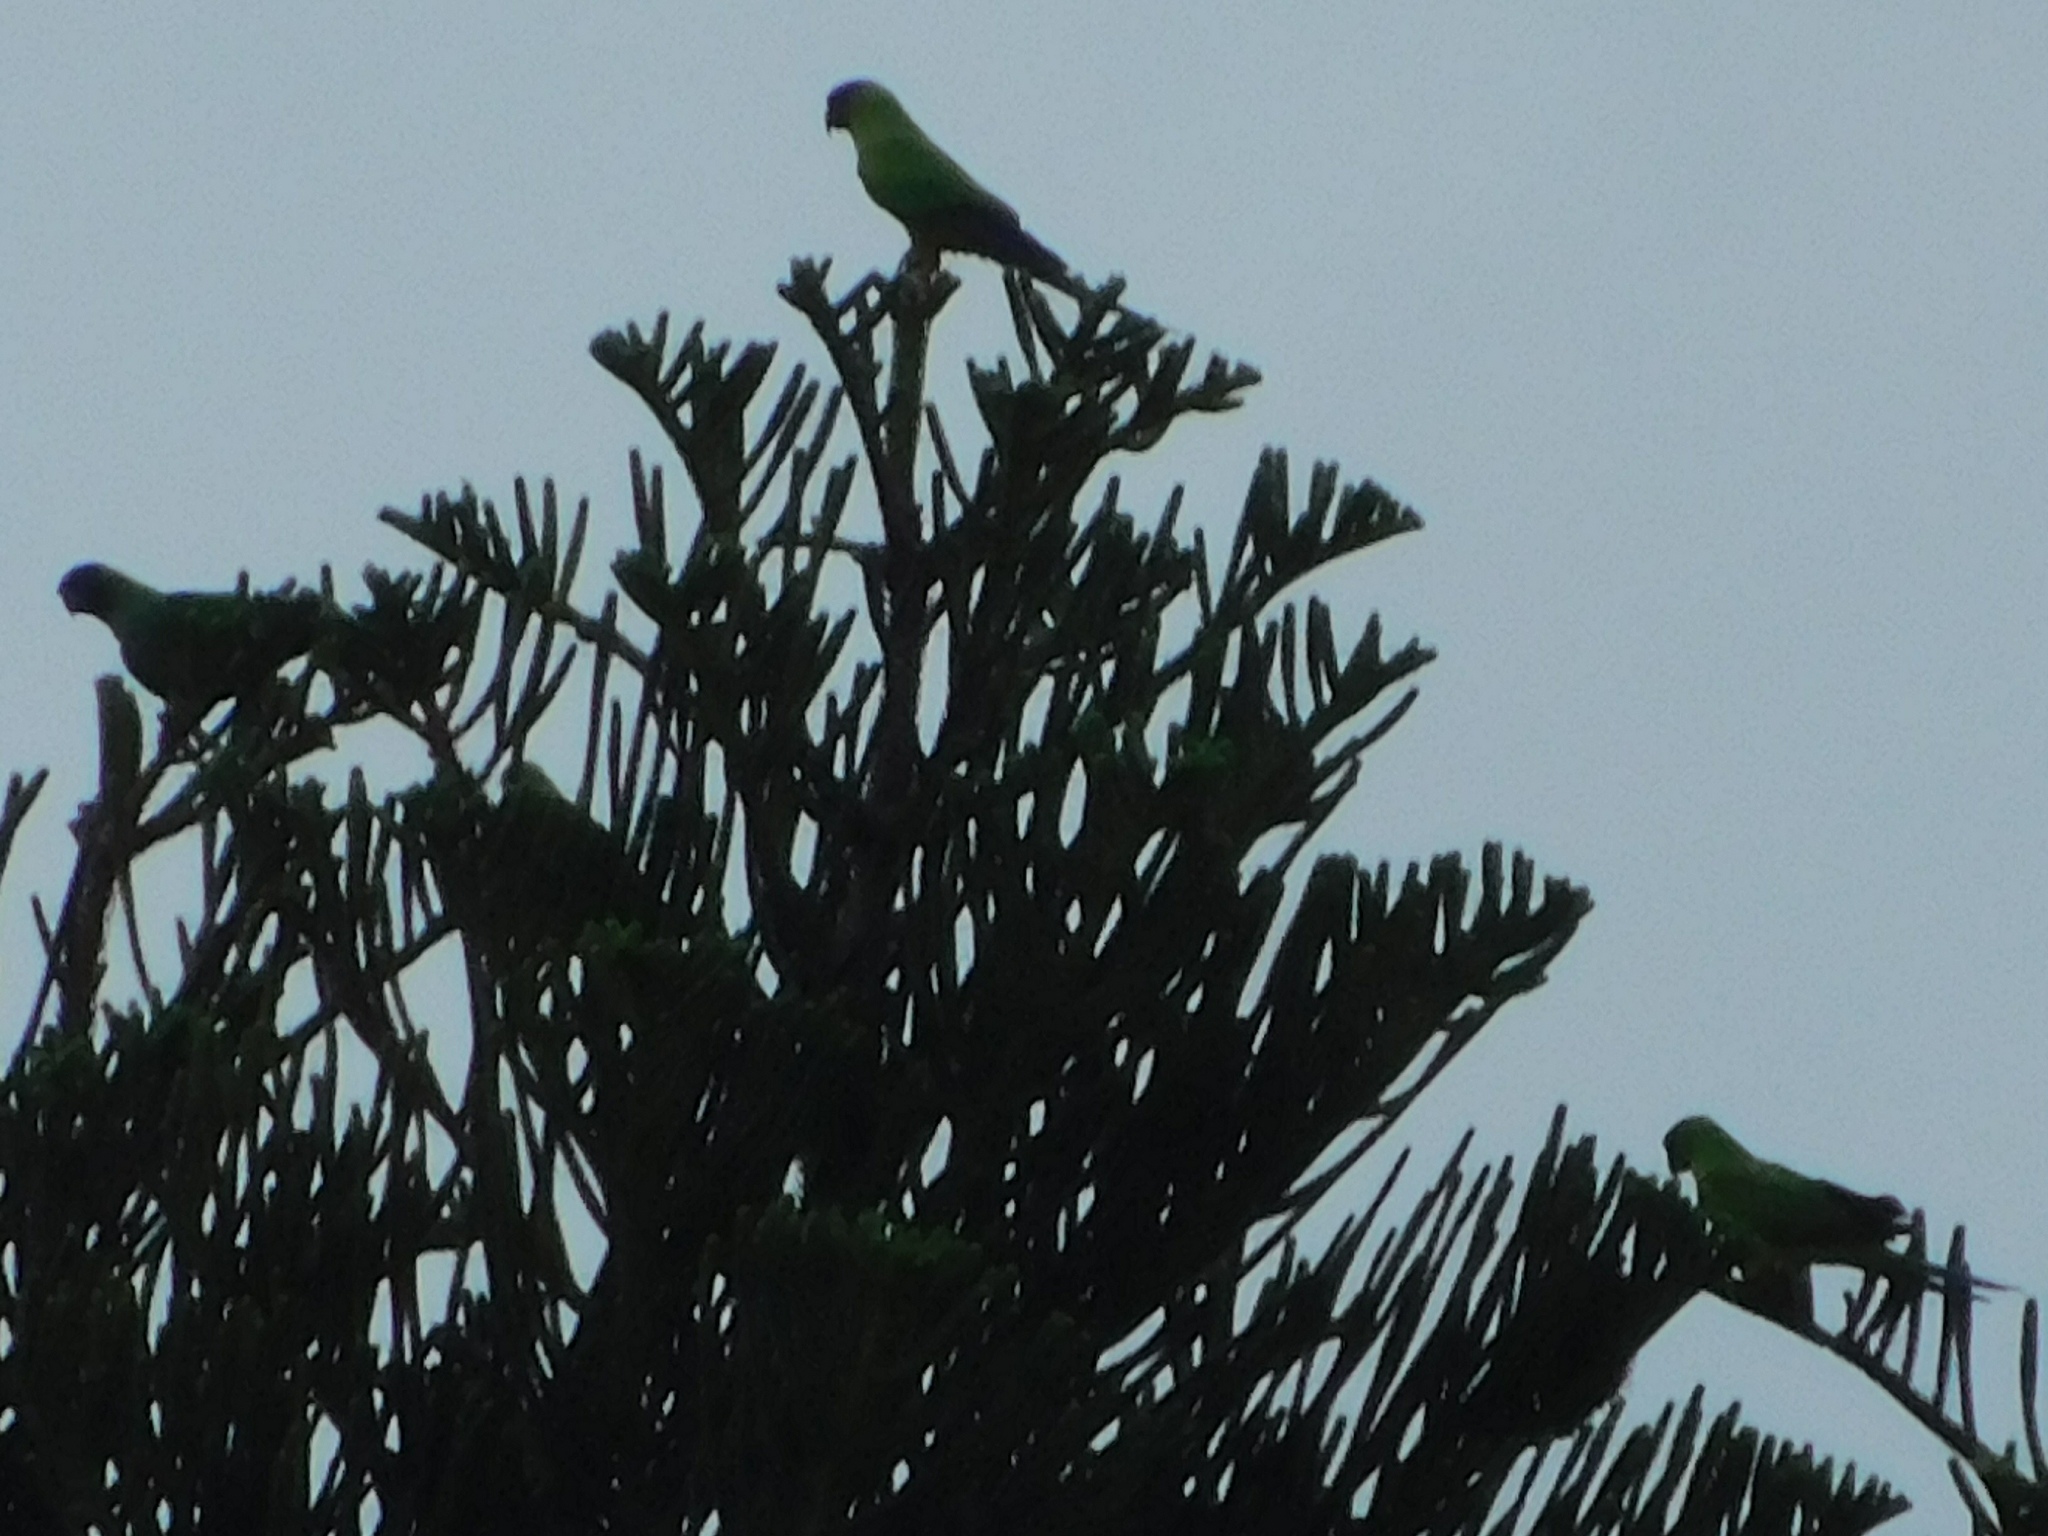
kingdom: Animalia
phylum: Chordata
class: Aves
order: Psittaciformes
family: Psittacidae
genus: Nandayus
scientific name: Nandayus nenday
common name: Nanday parakeet
